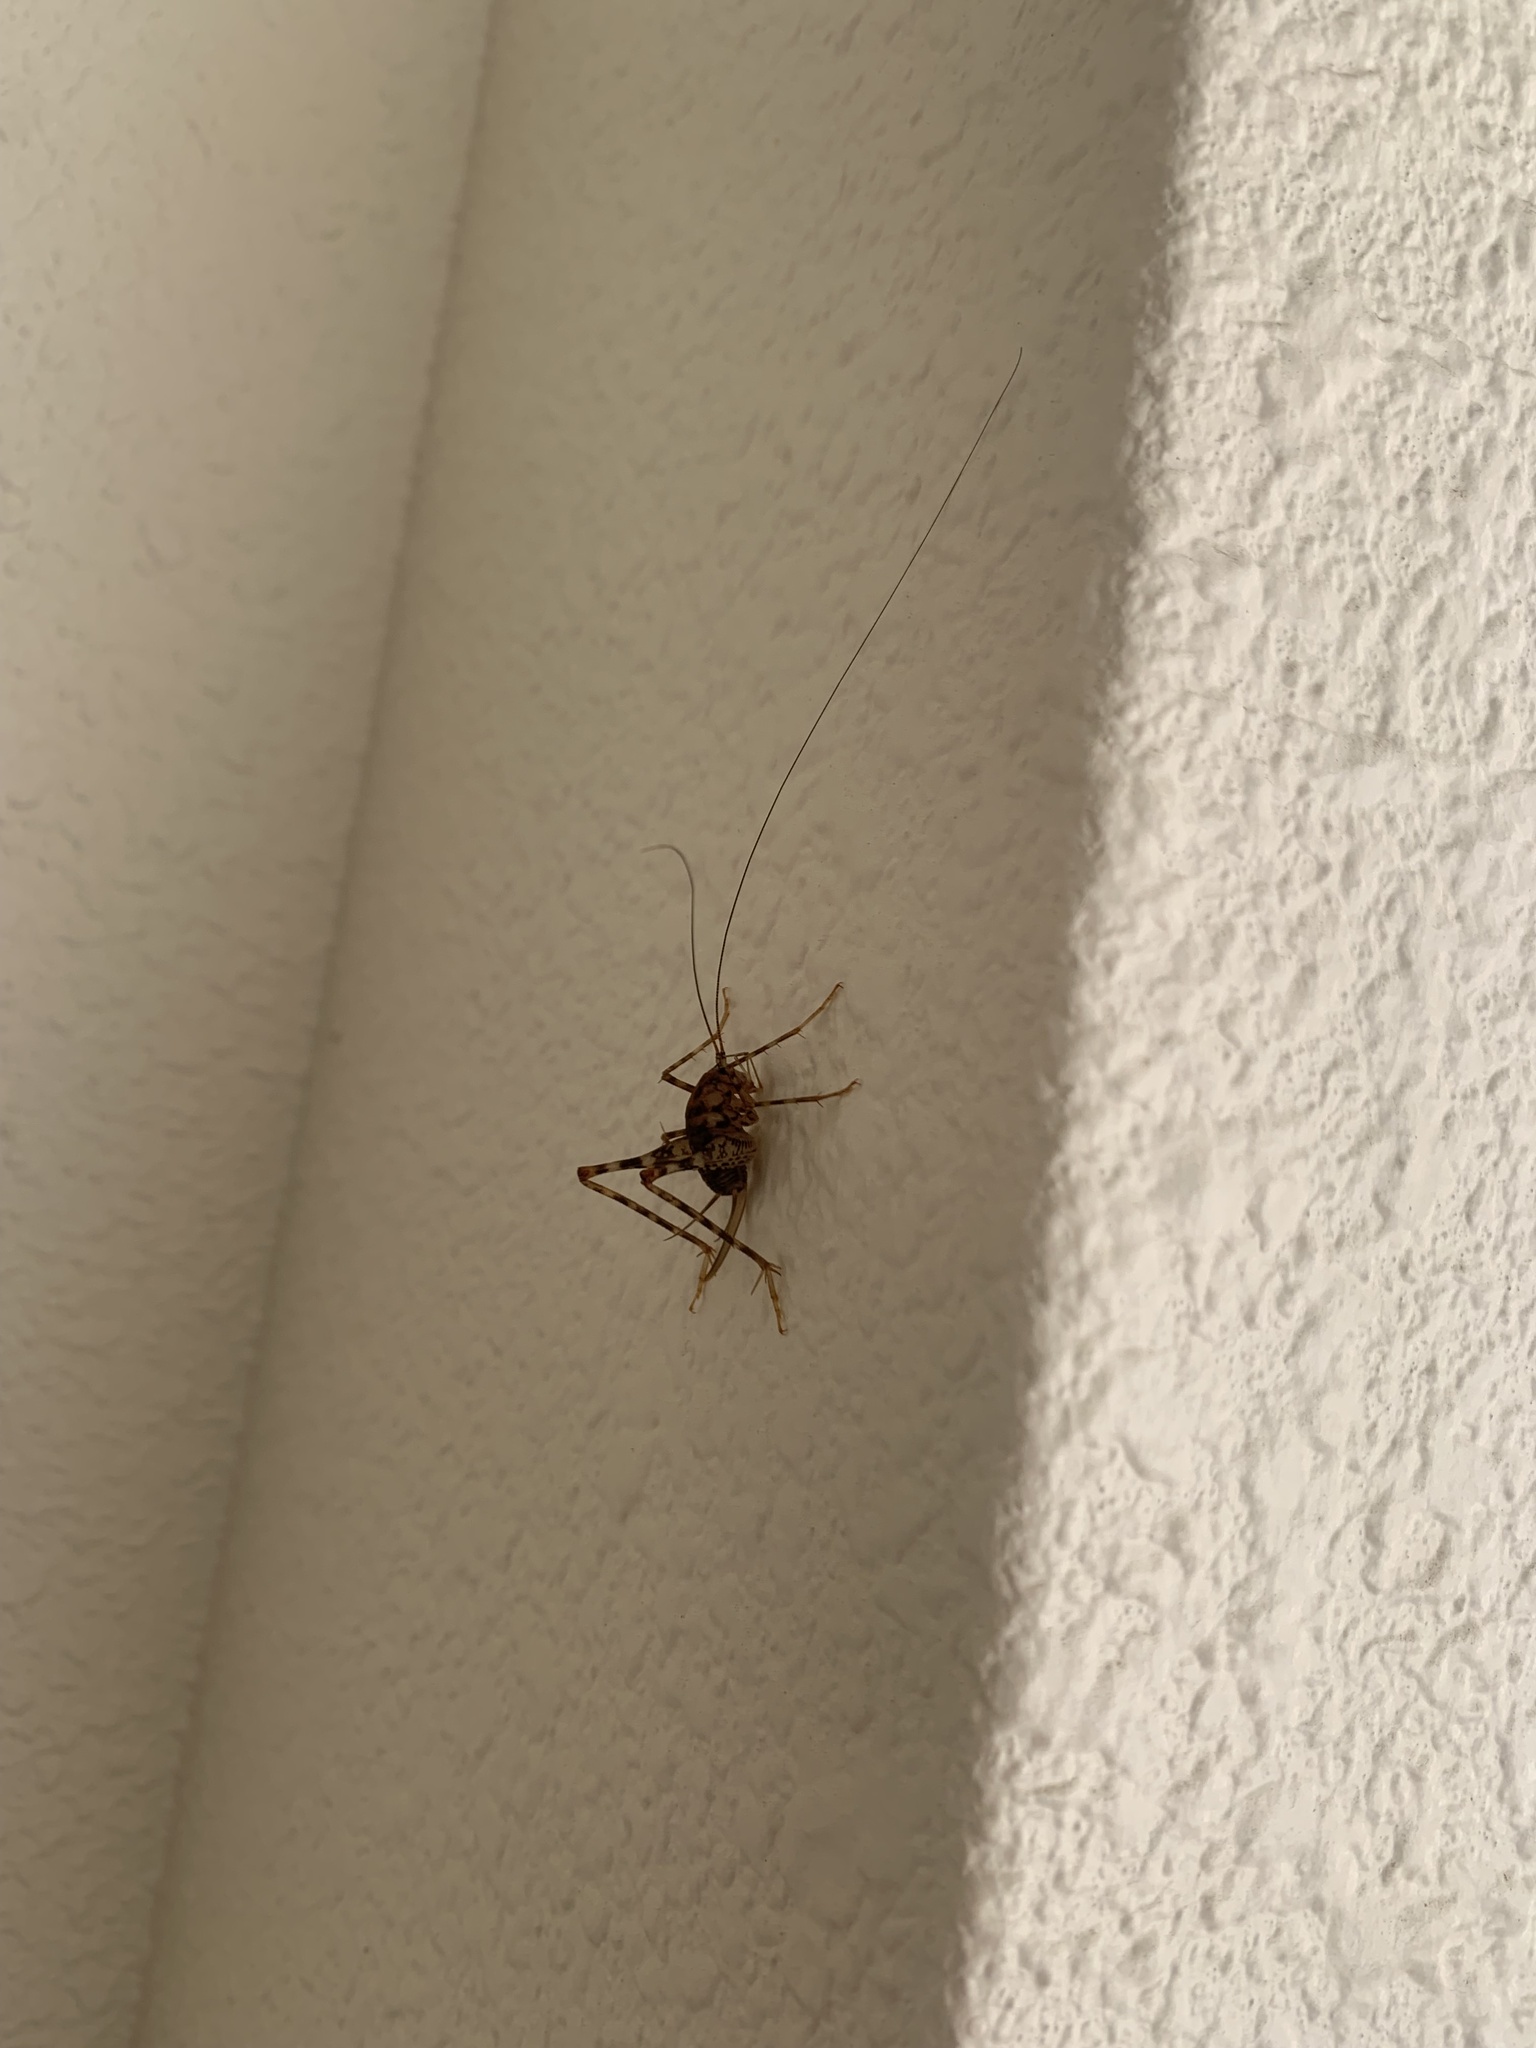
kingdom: Animalia
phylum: Arthropoda
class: Insecta
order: Orthoptera
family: Rhaphidophoridae
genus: Tachycines
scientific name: Tachycines asynamorus
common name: Greenhouse camel cricket
